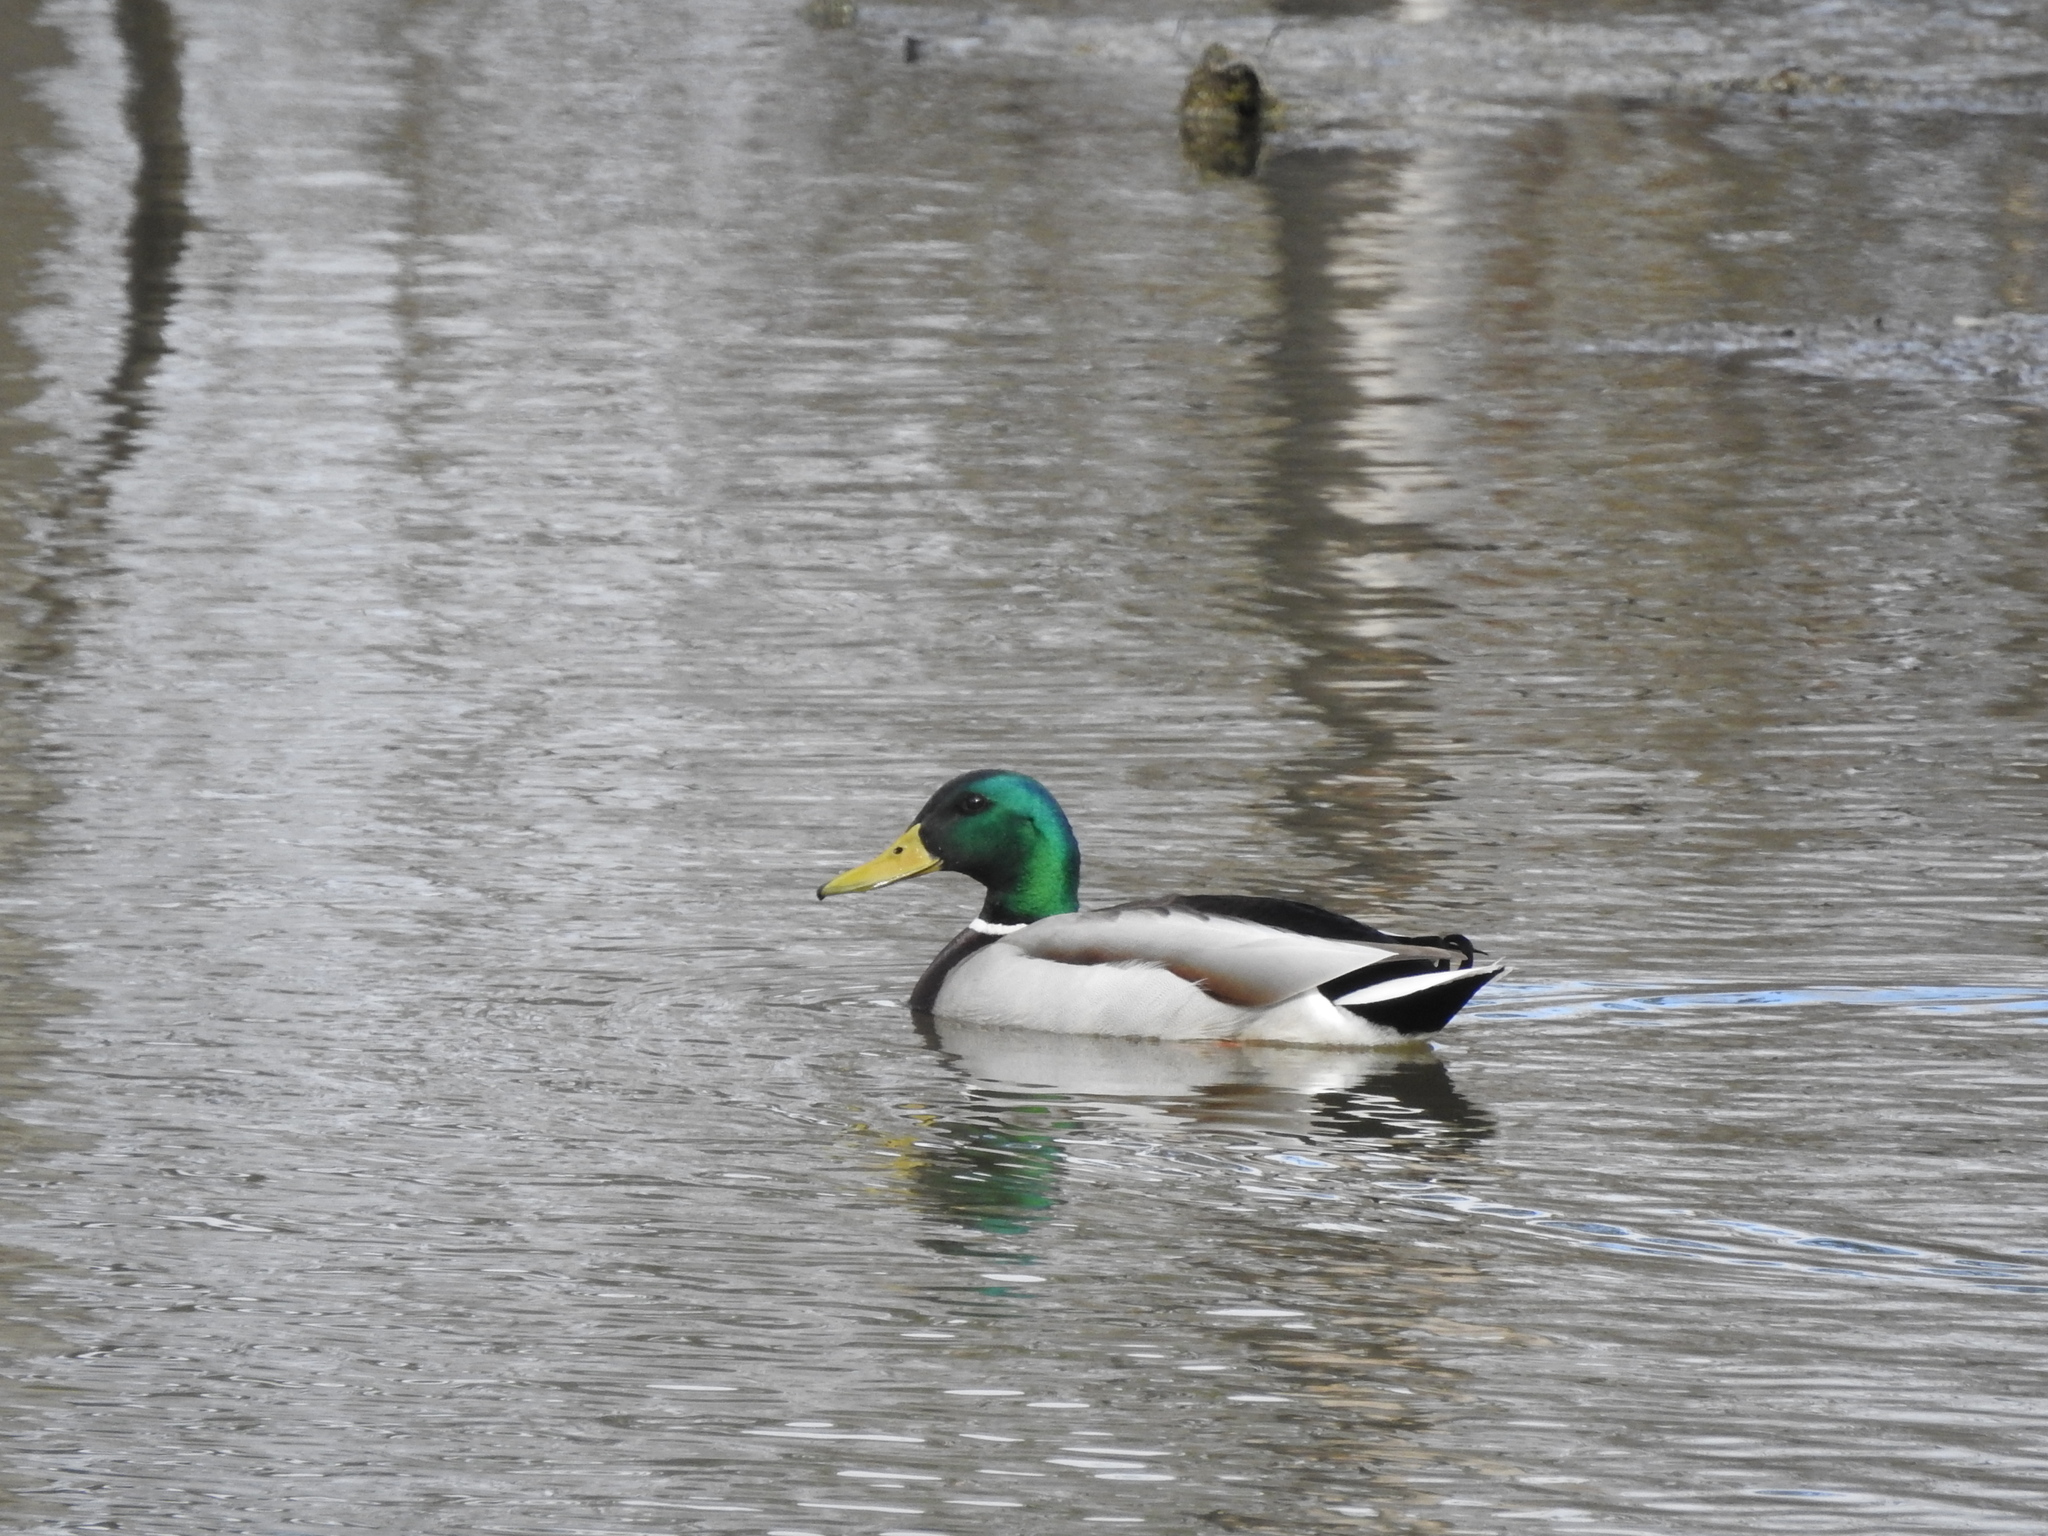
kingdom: Animalia
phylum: Chordata
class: Aves
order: Anseriformes
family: Anatidae
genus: Anas
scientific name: Anas platyrhynchos
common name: Mallard
